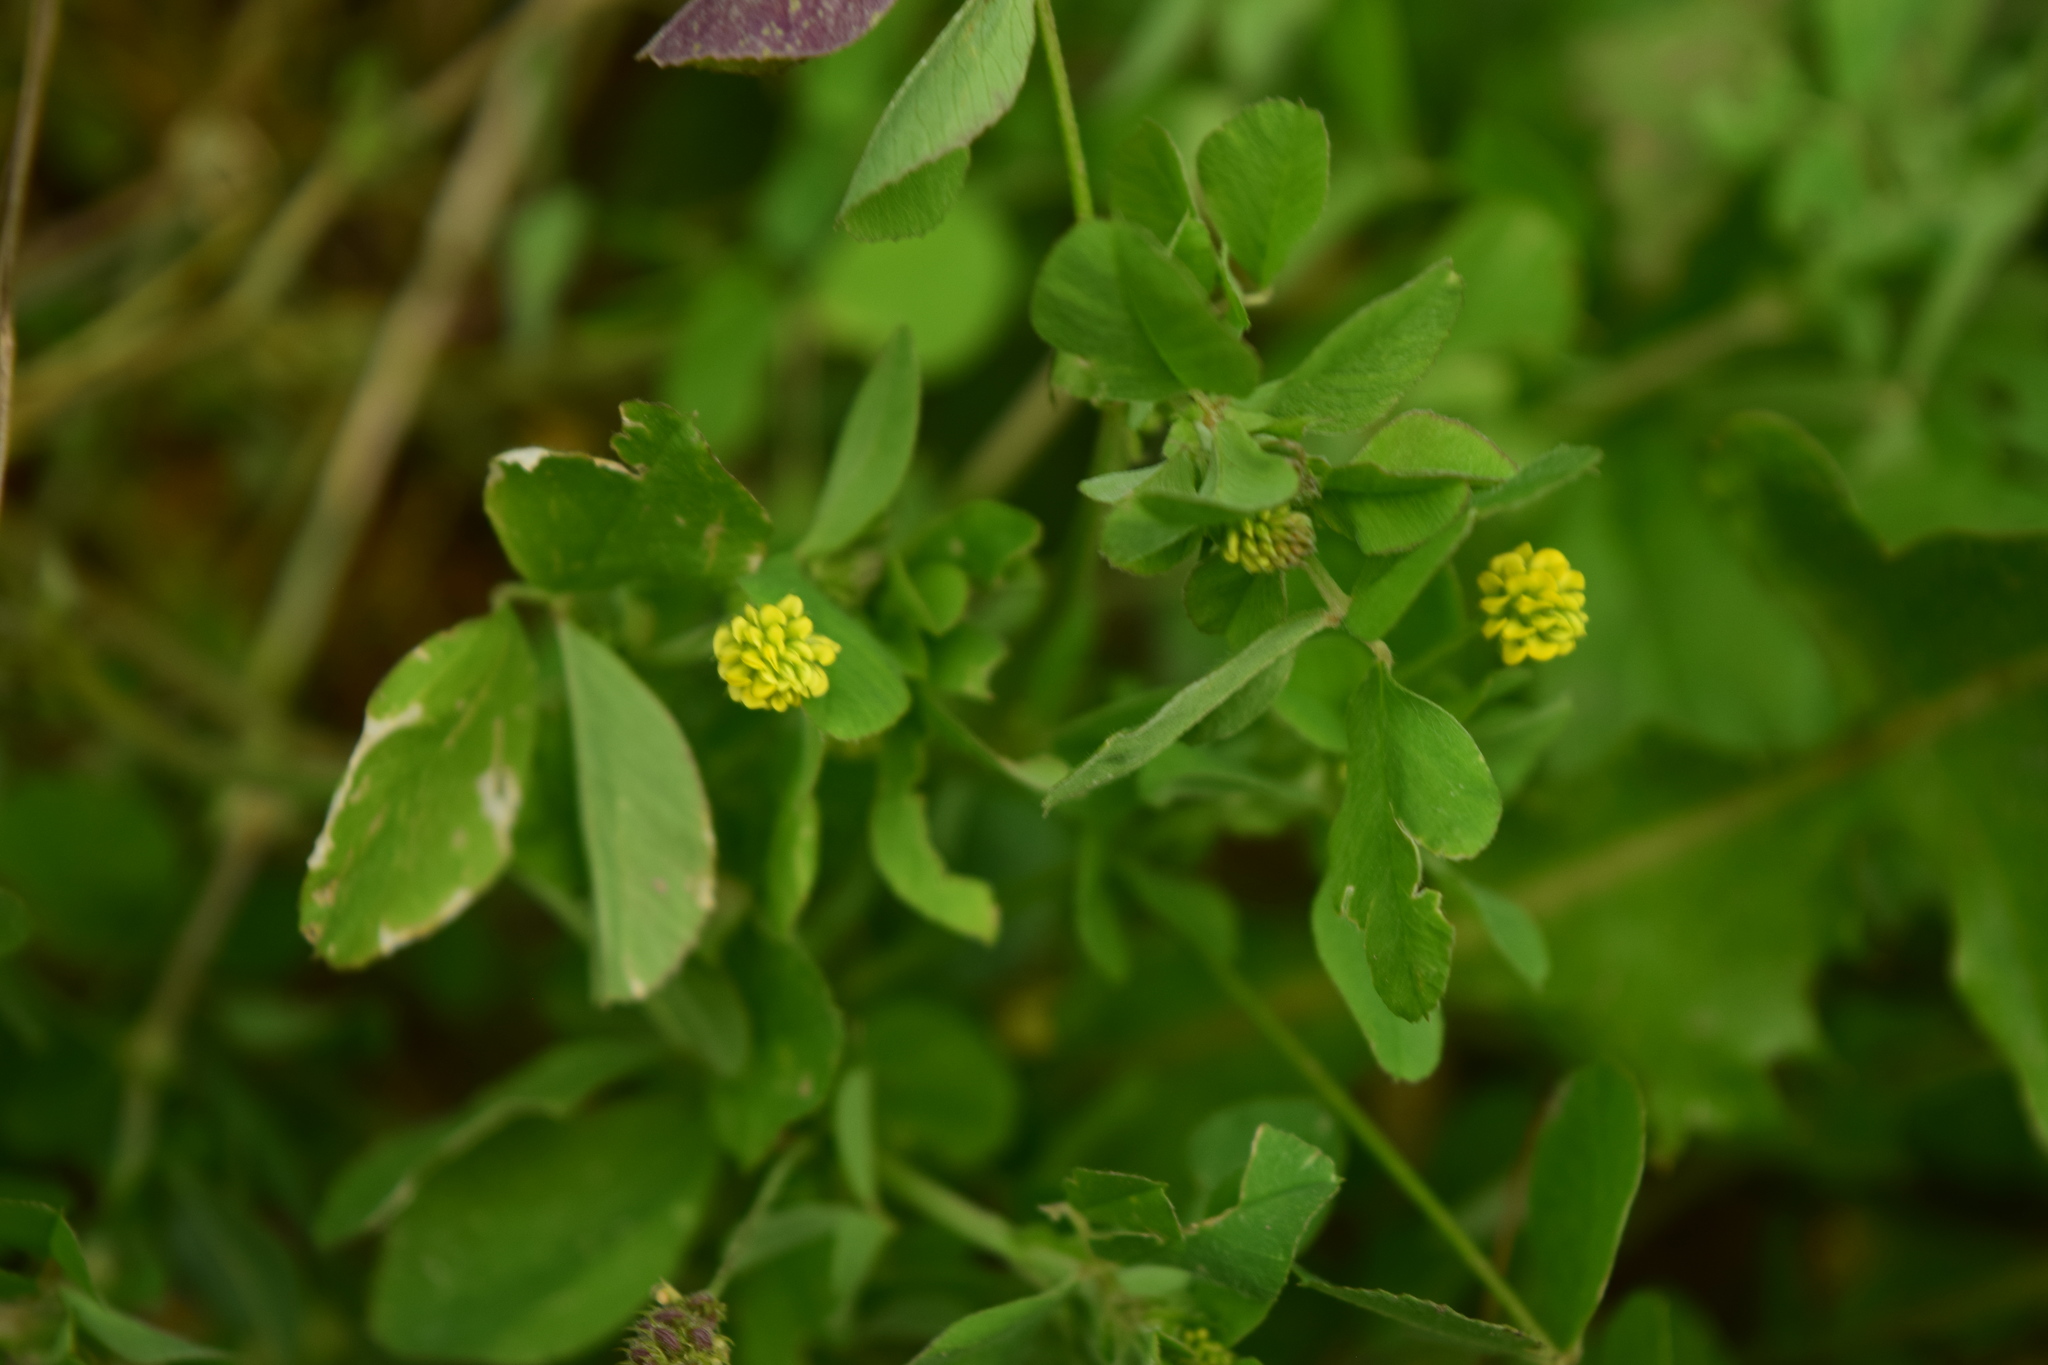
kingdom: Plantae
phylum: Tracheophyta
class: Magnoliopsida
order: Fabales
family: Fabaceae
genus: Medicago
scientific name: Medicago lupulina
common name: Black medick
